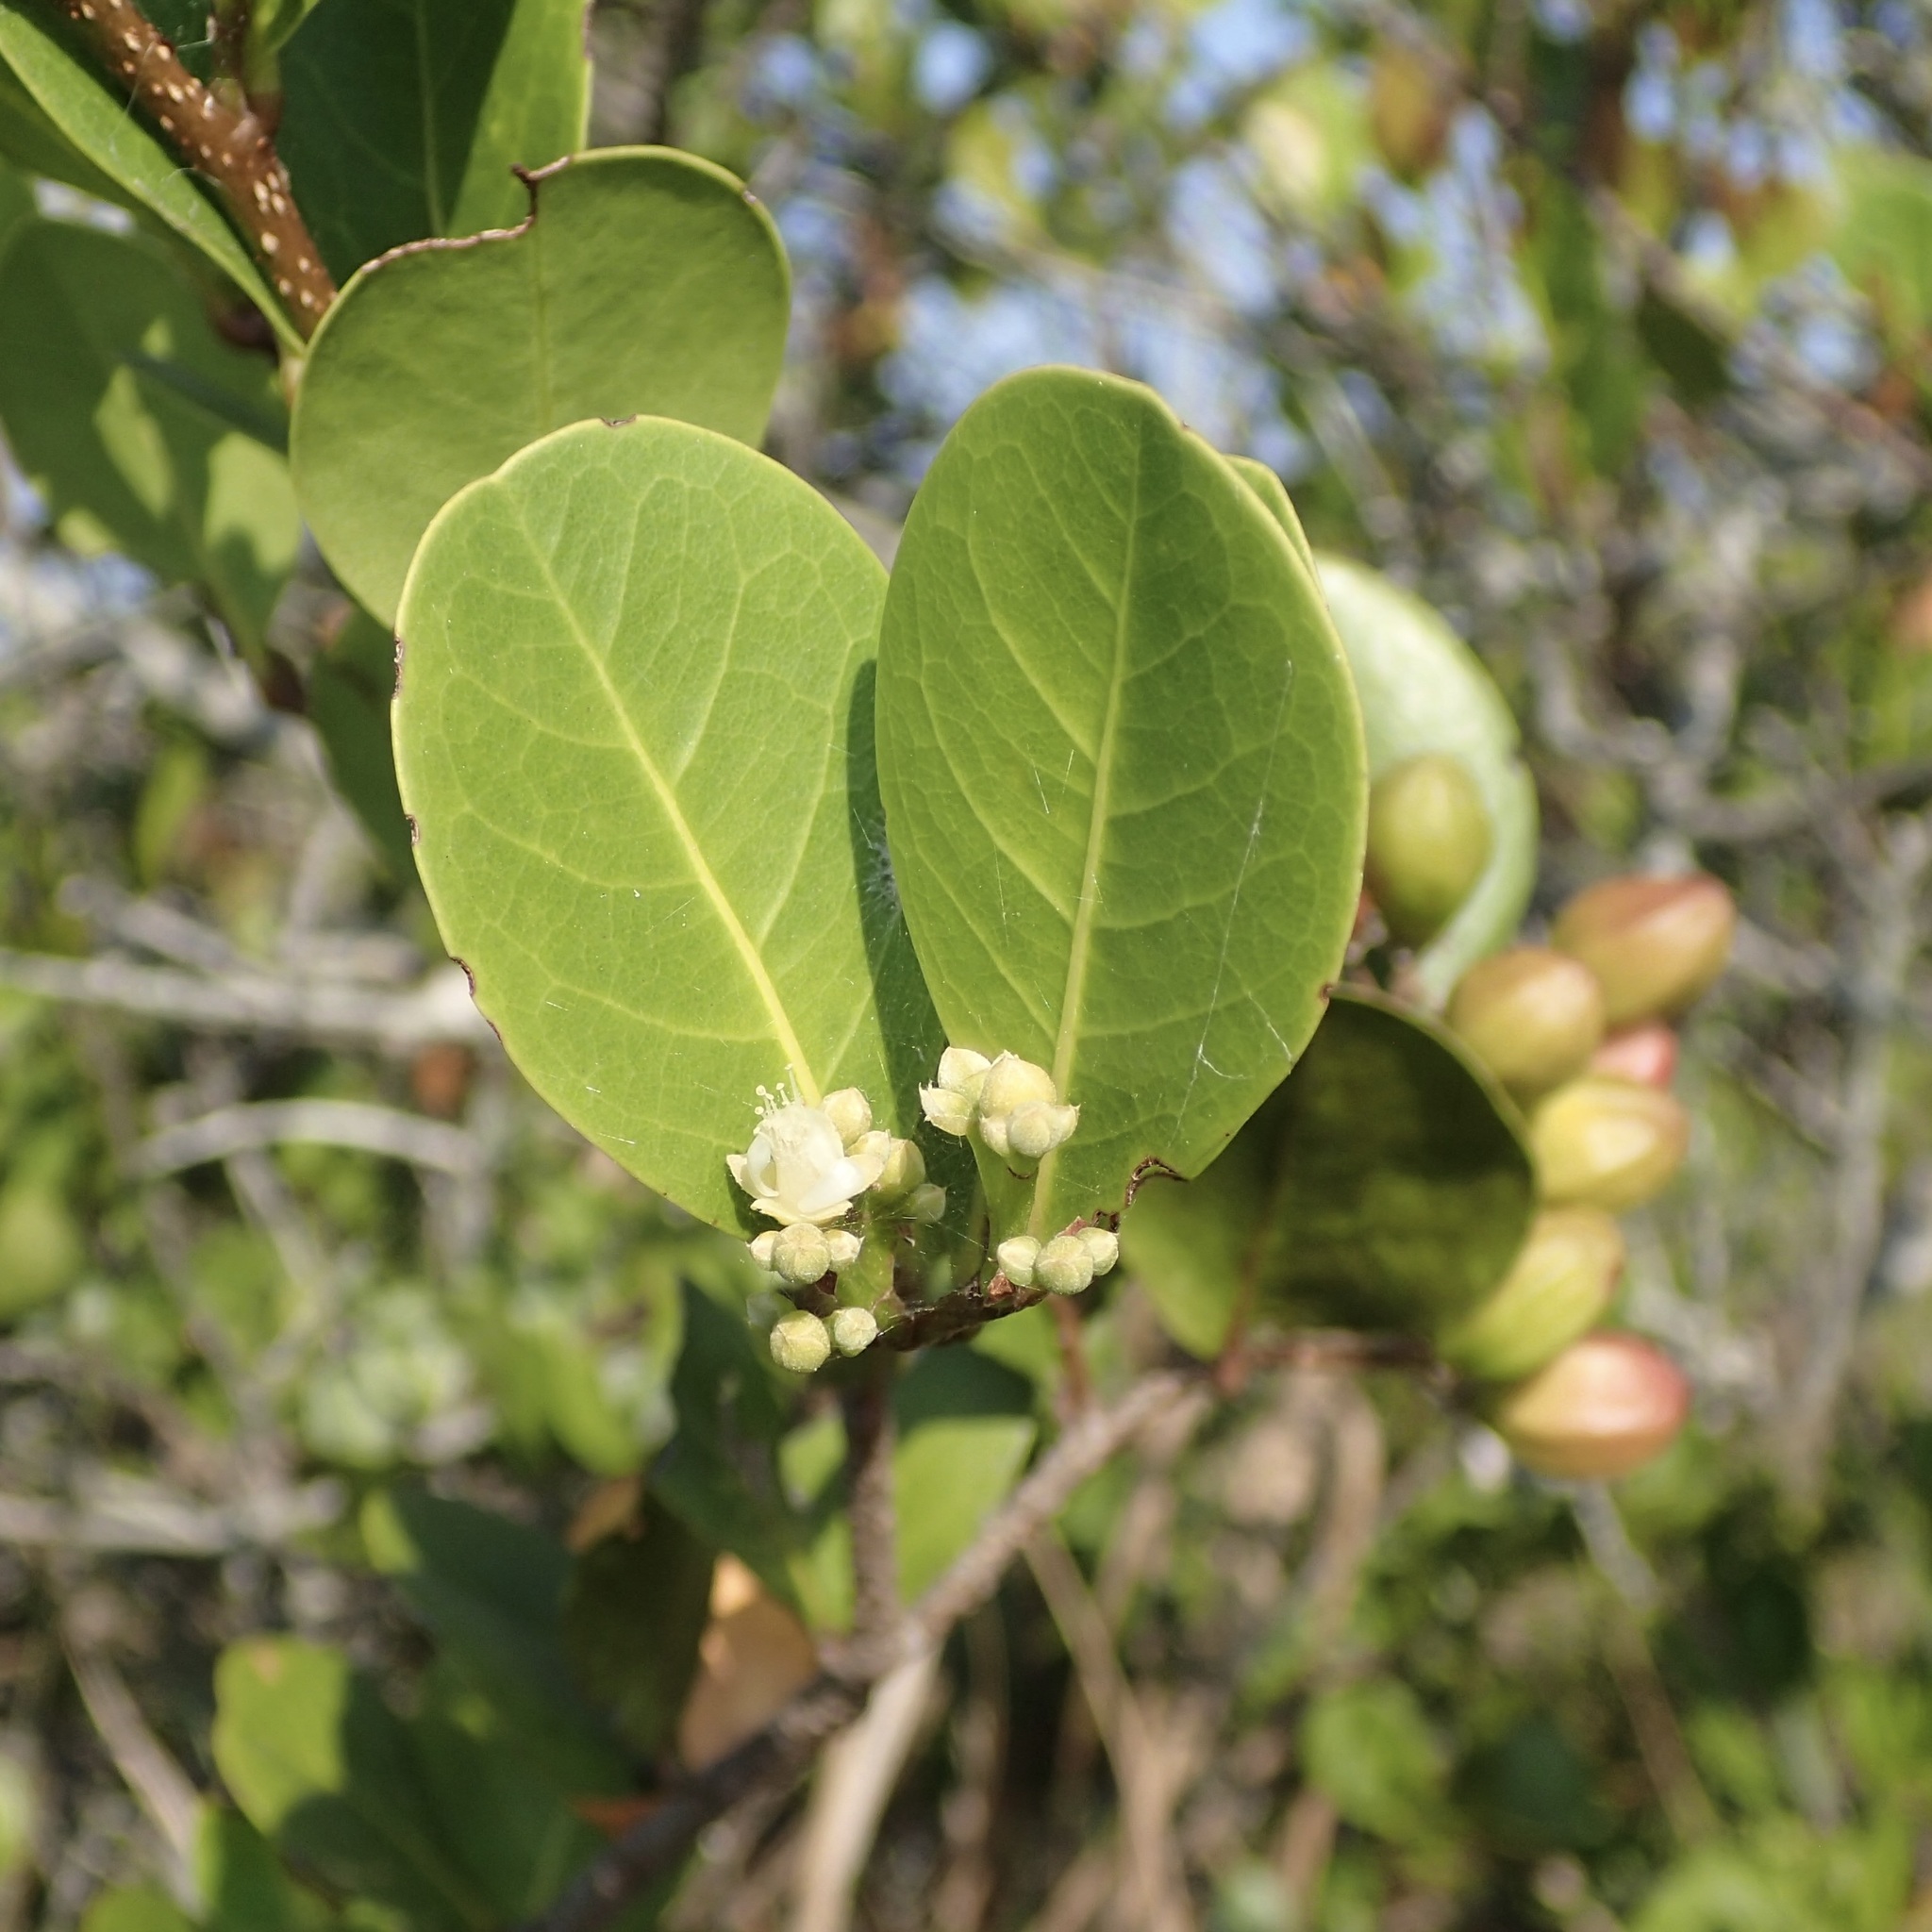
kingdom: Plantae
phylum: Tracheophyta
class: Magnoliopsida
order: Malpighiales
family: Chrysobalanaceae
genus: Chrysobalanus
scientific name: Chrysobalanus icaco
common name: Coco plum
